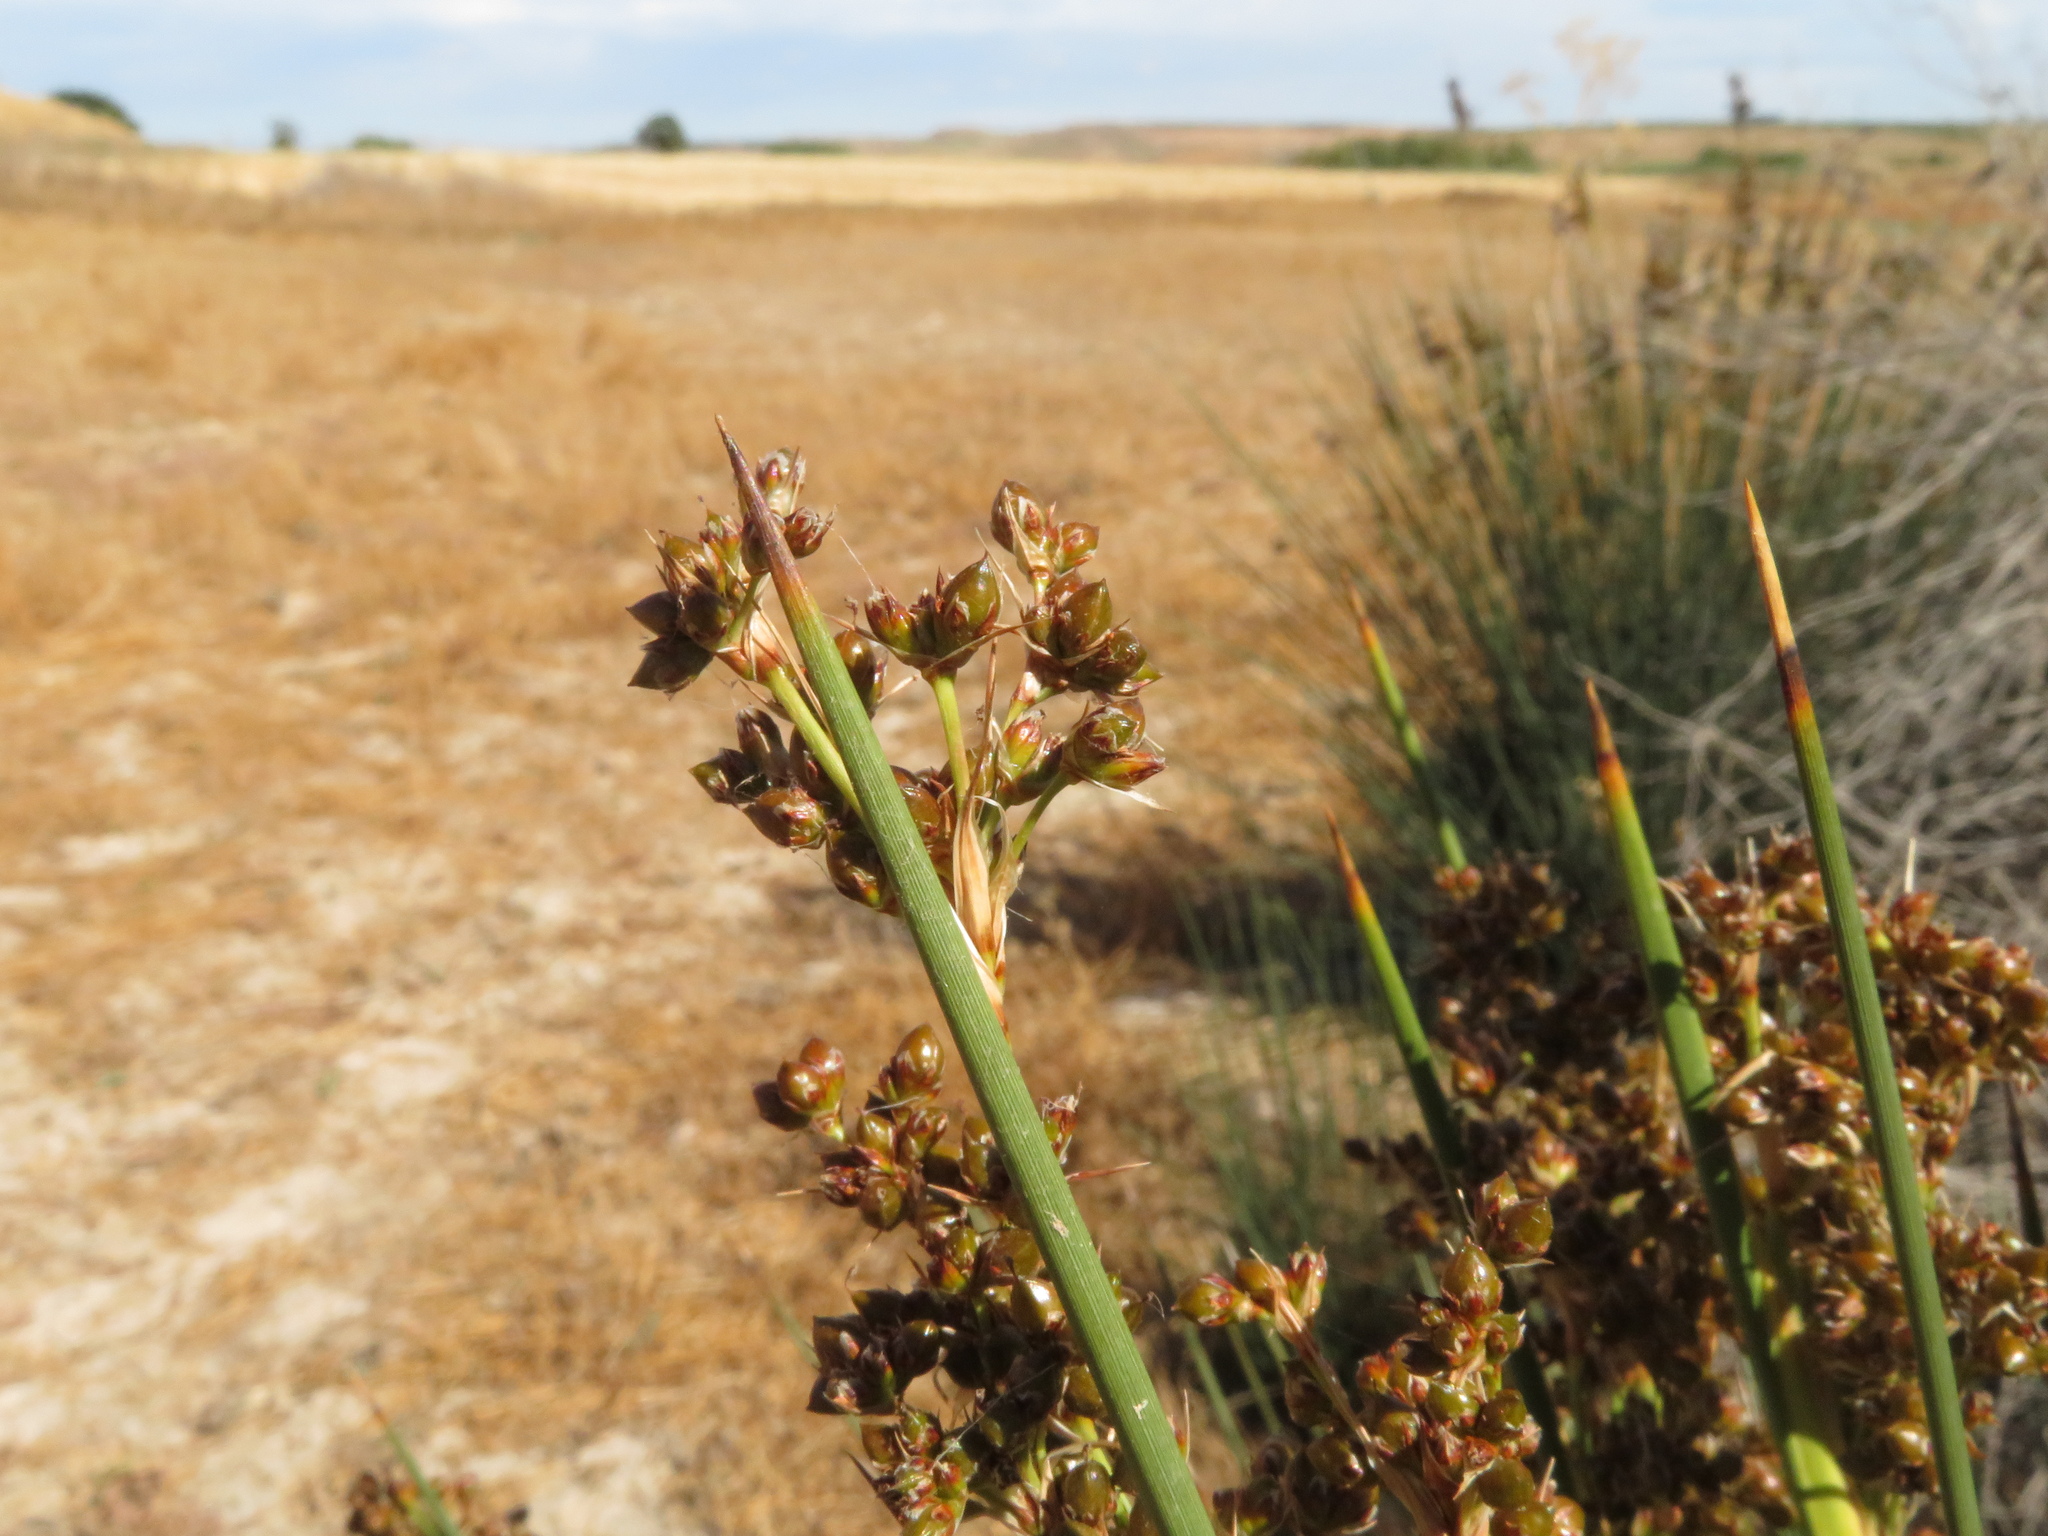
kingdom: Plantae
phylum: Tracheophyta
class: Liliopsida
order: Poales
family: Juncaceae
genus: Juncus
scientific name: Juncus acutus
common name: Sharp rush
